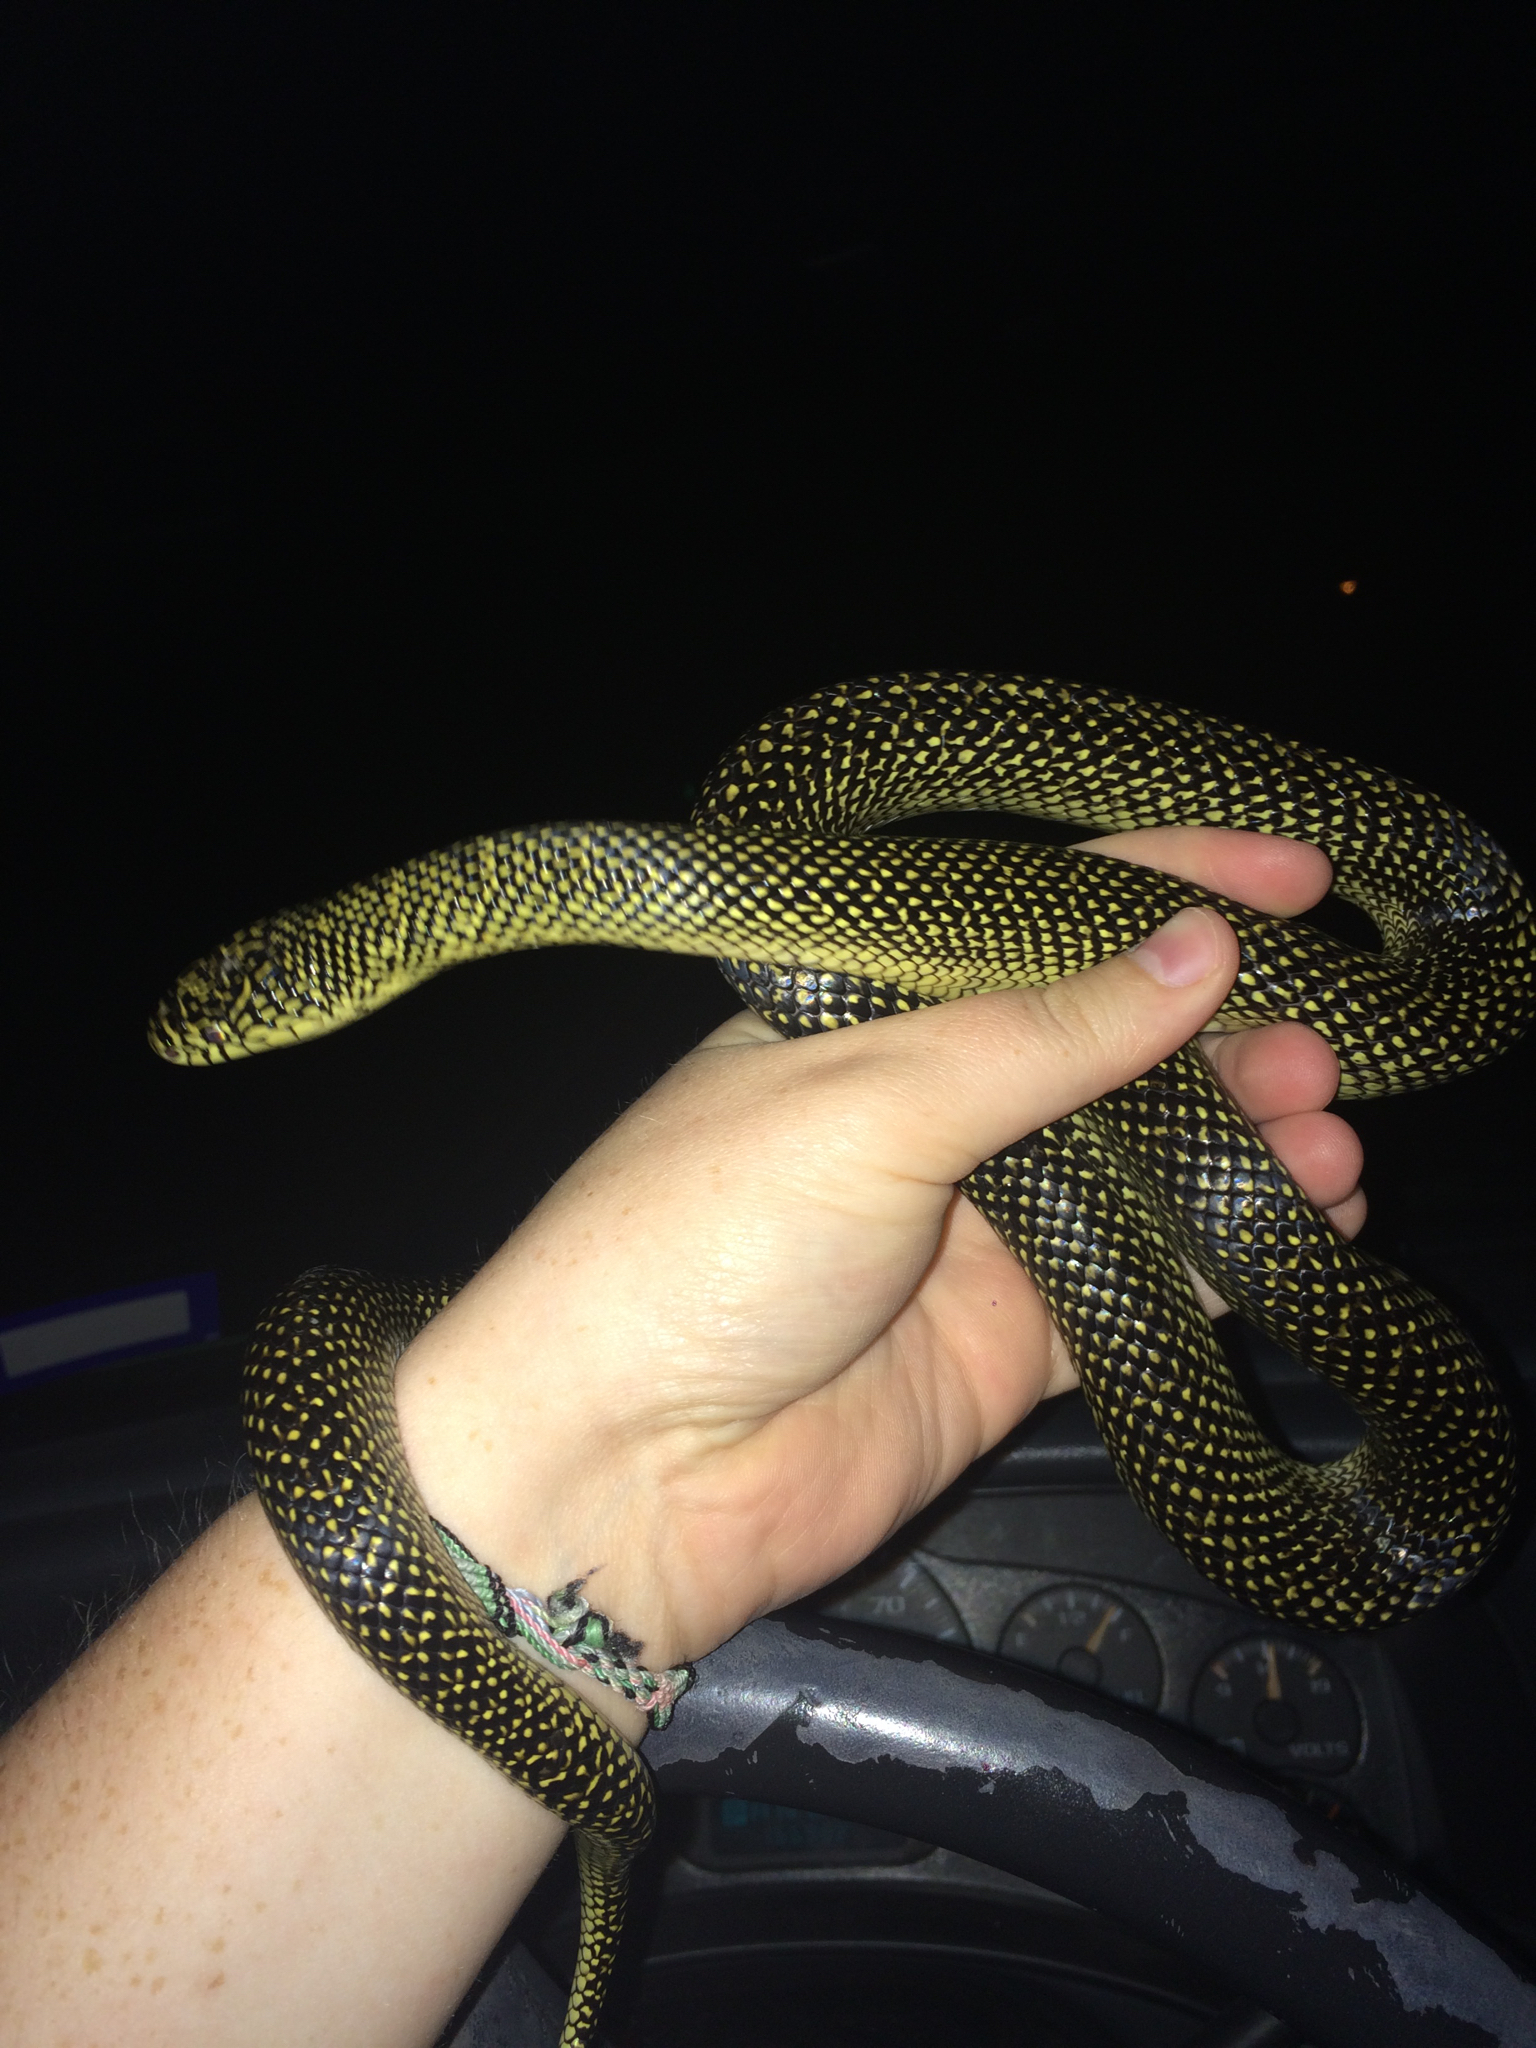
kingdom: Animalia
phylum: Chordata
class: Squamata
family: Colubridae
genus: Lampropeltis
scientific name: Lampropeltis holbrooki
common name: Speckled kingsnake
